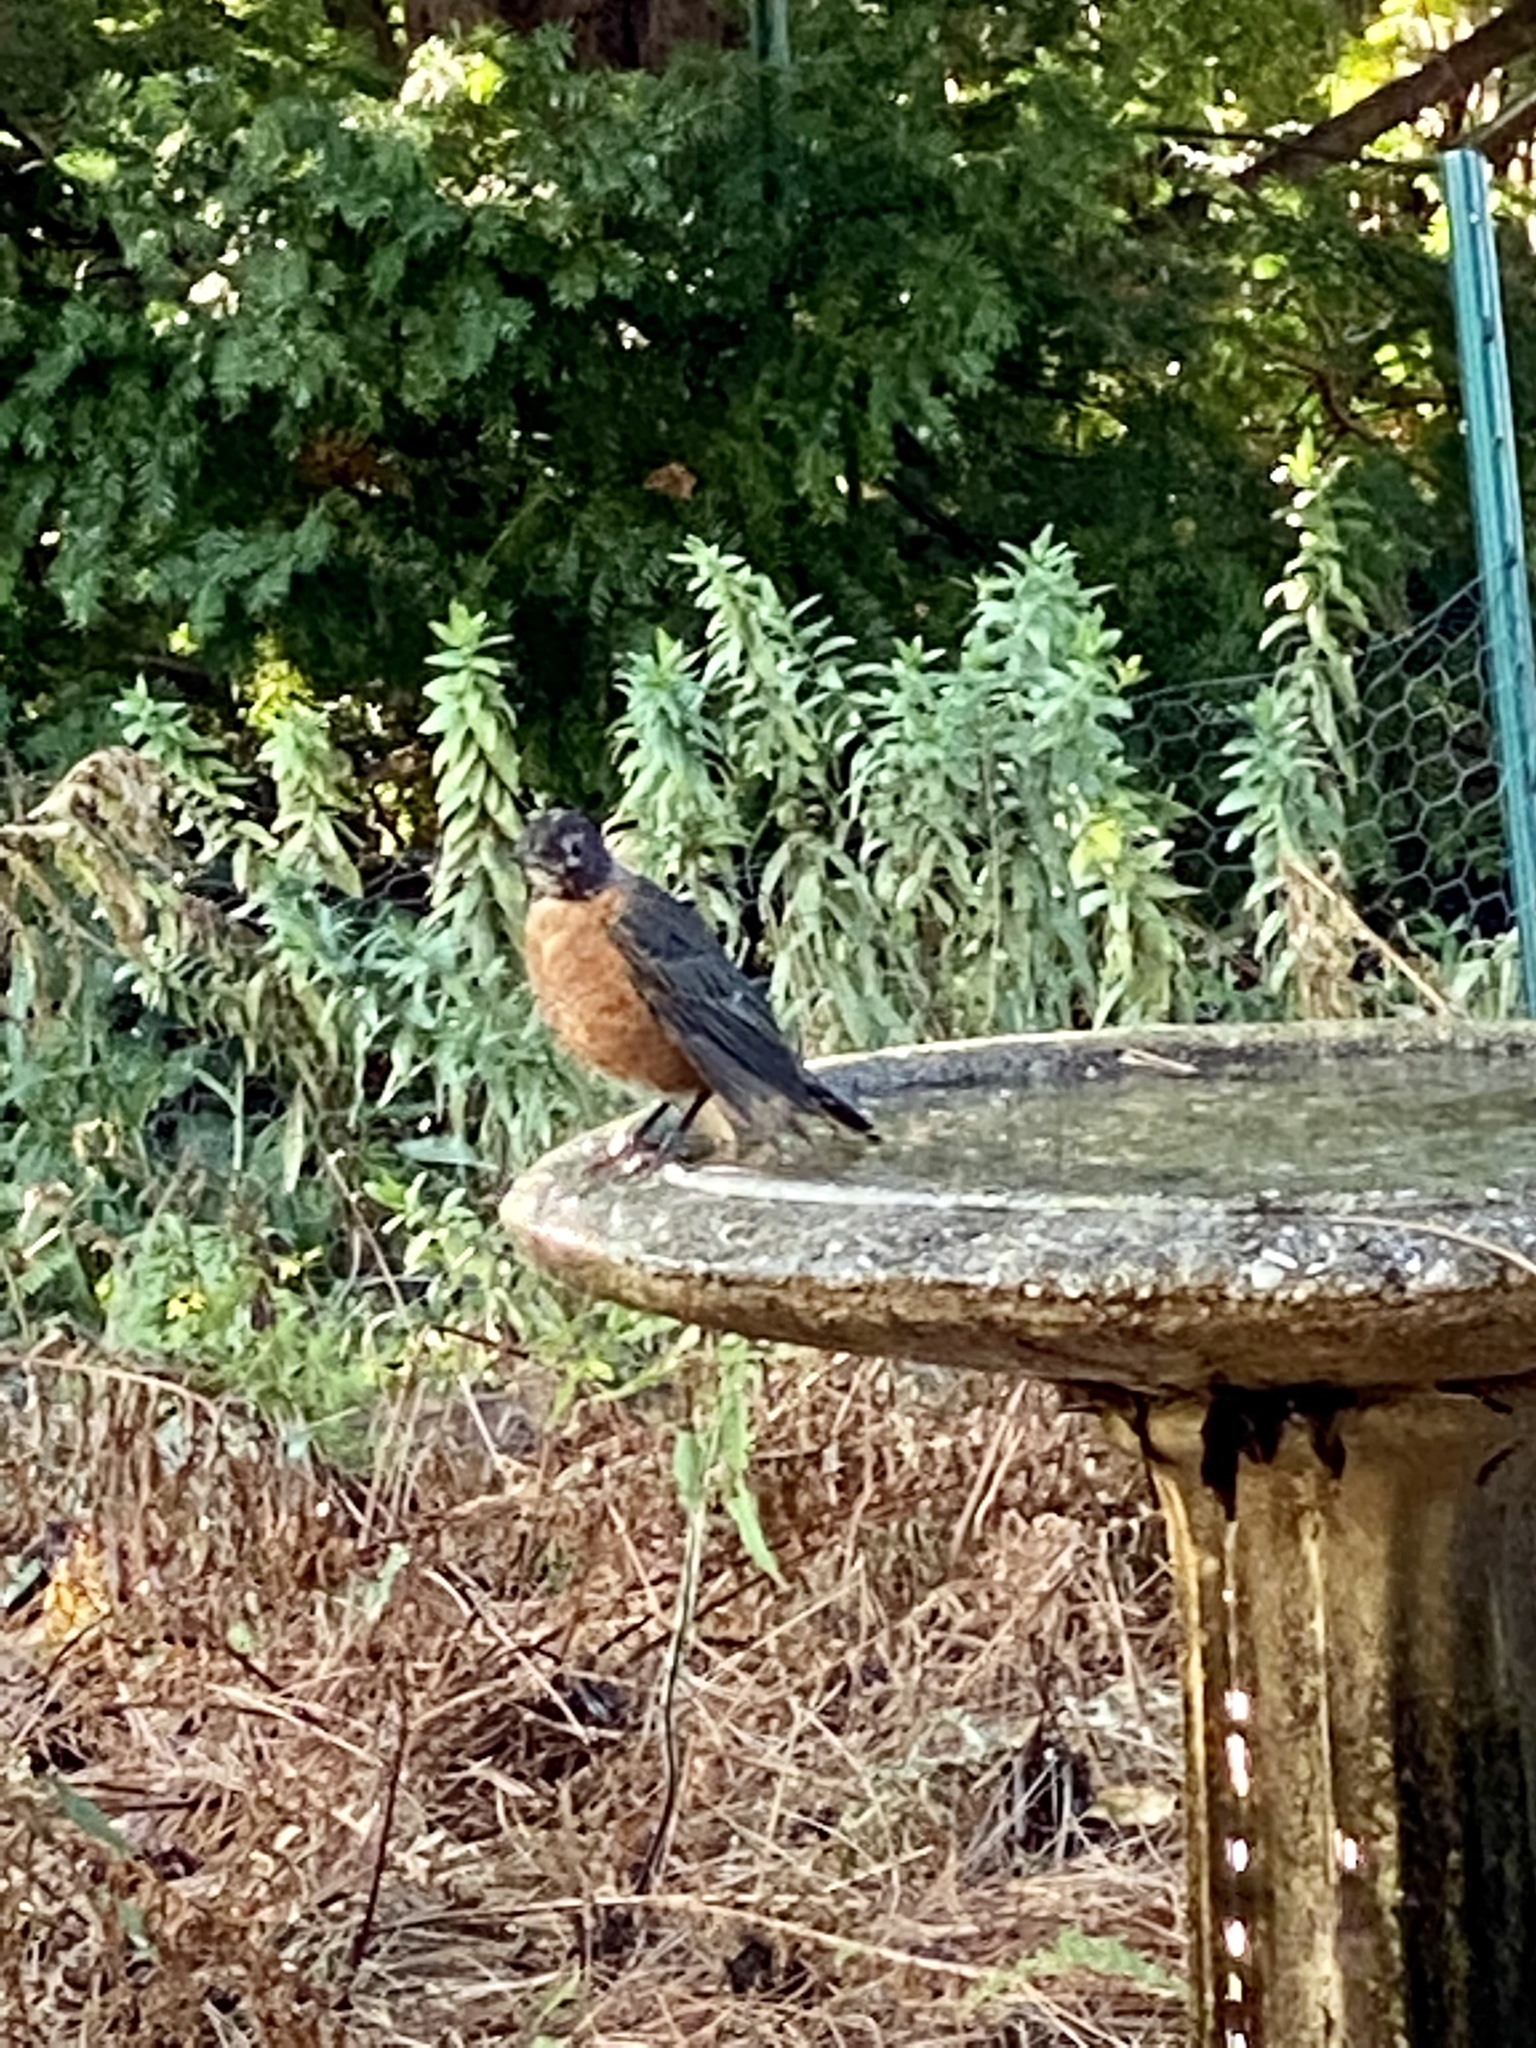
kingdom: Animalia
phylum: Chordata
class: Aves
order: Passeriformes
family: Turdidae
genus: Turdus
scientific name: Turdus migratorius
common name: American robin
